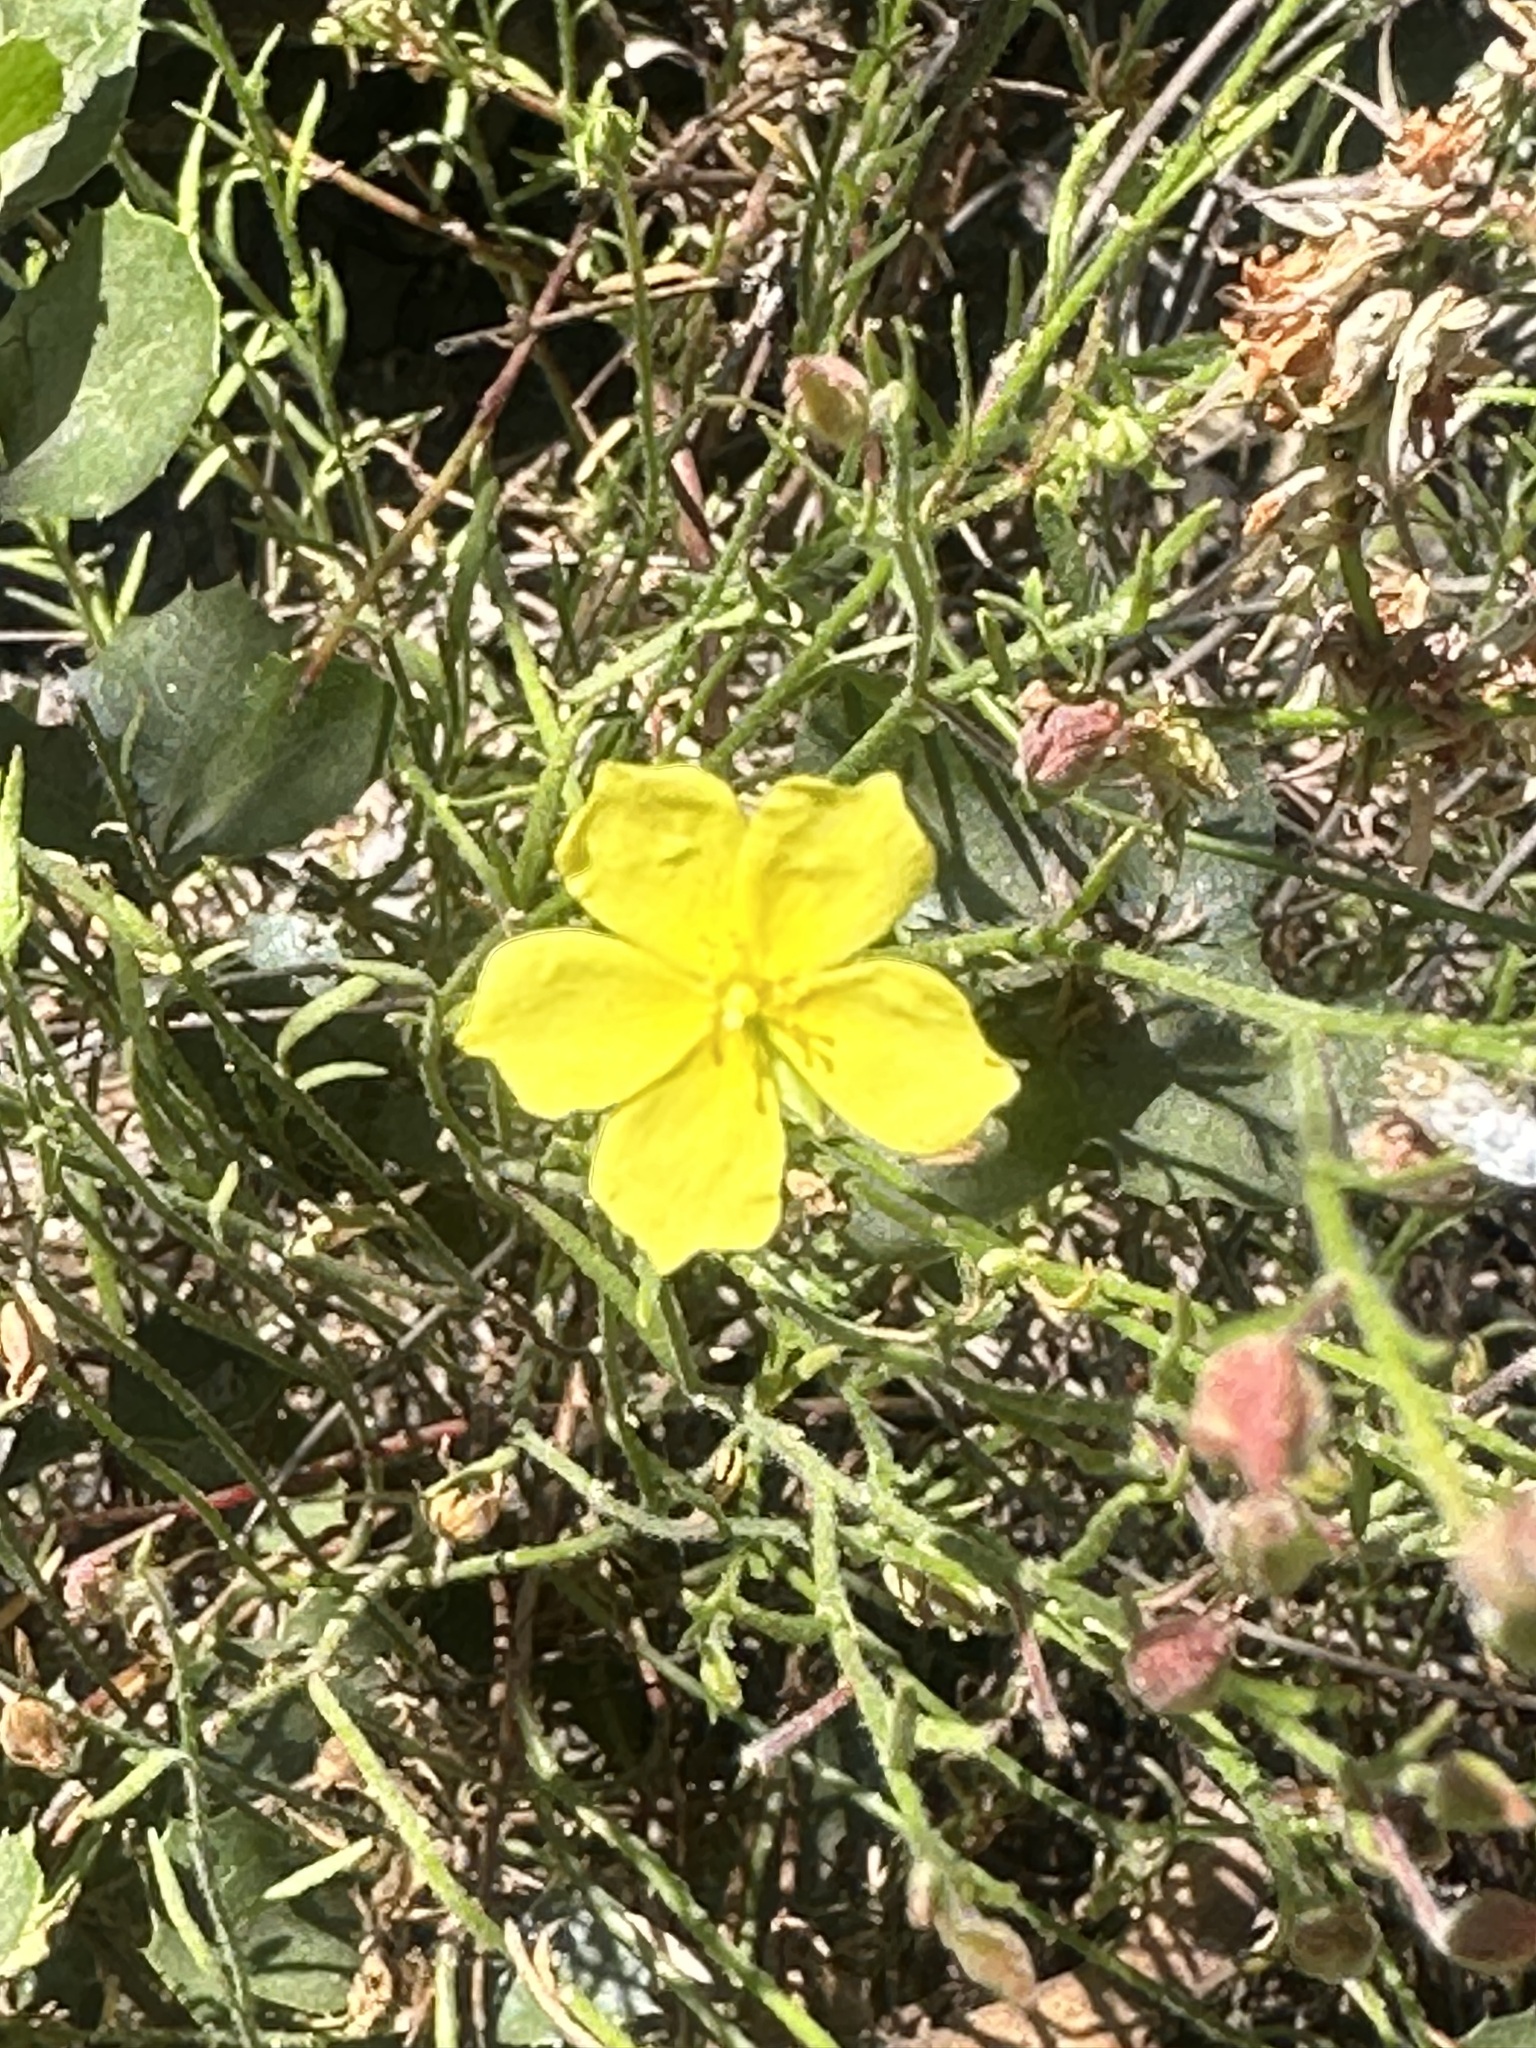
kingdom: Plantae
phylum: Tracheophyta
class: Magnoliopsida
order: Malvales
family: Cistaceae
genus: Crocanthemum
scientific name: Crocanthemum scoparium
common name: Broom-rose
